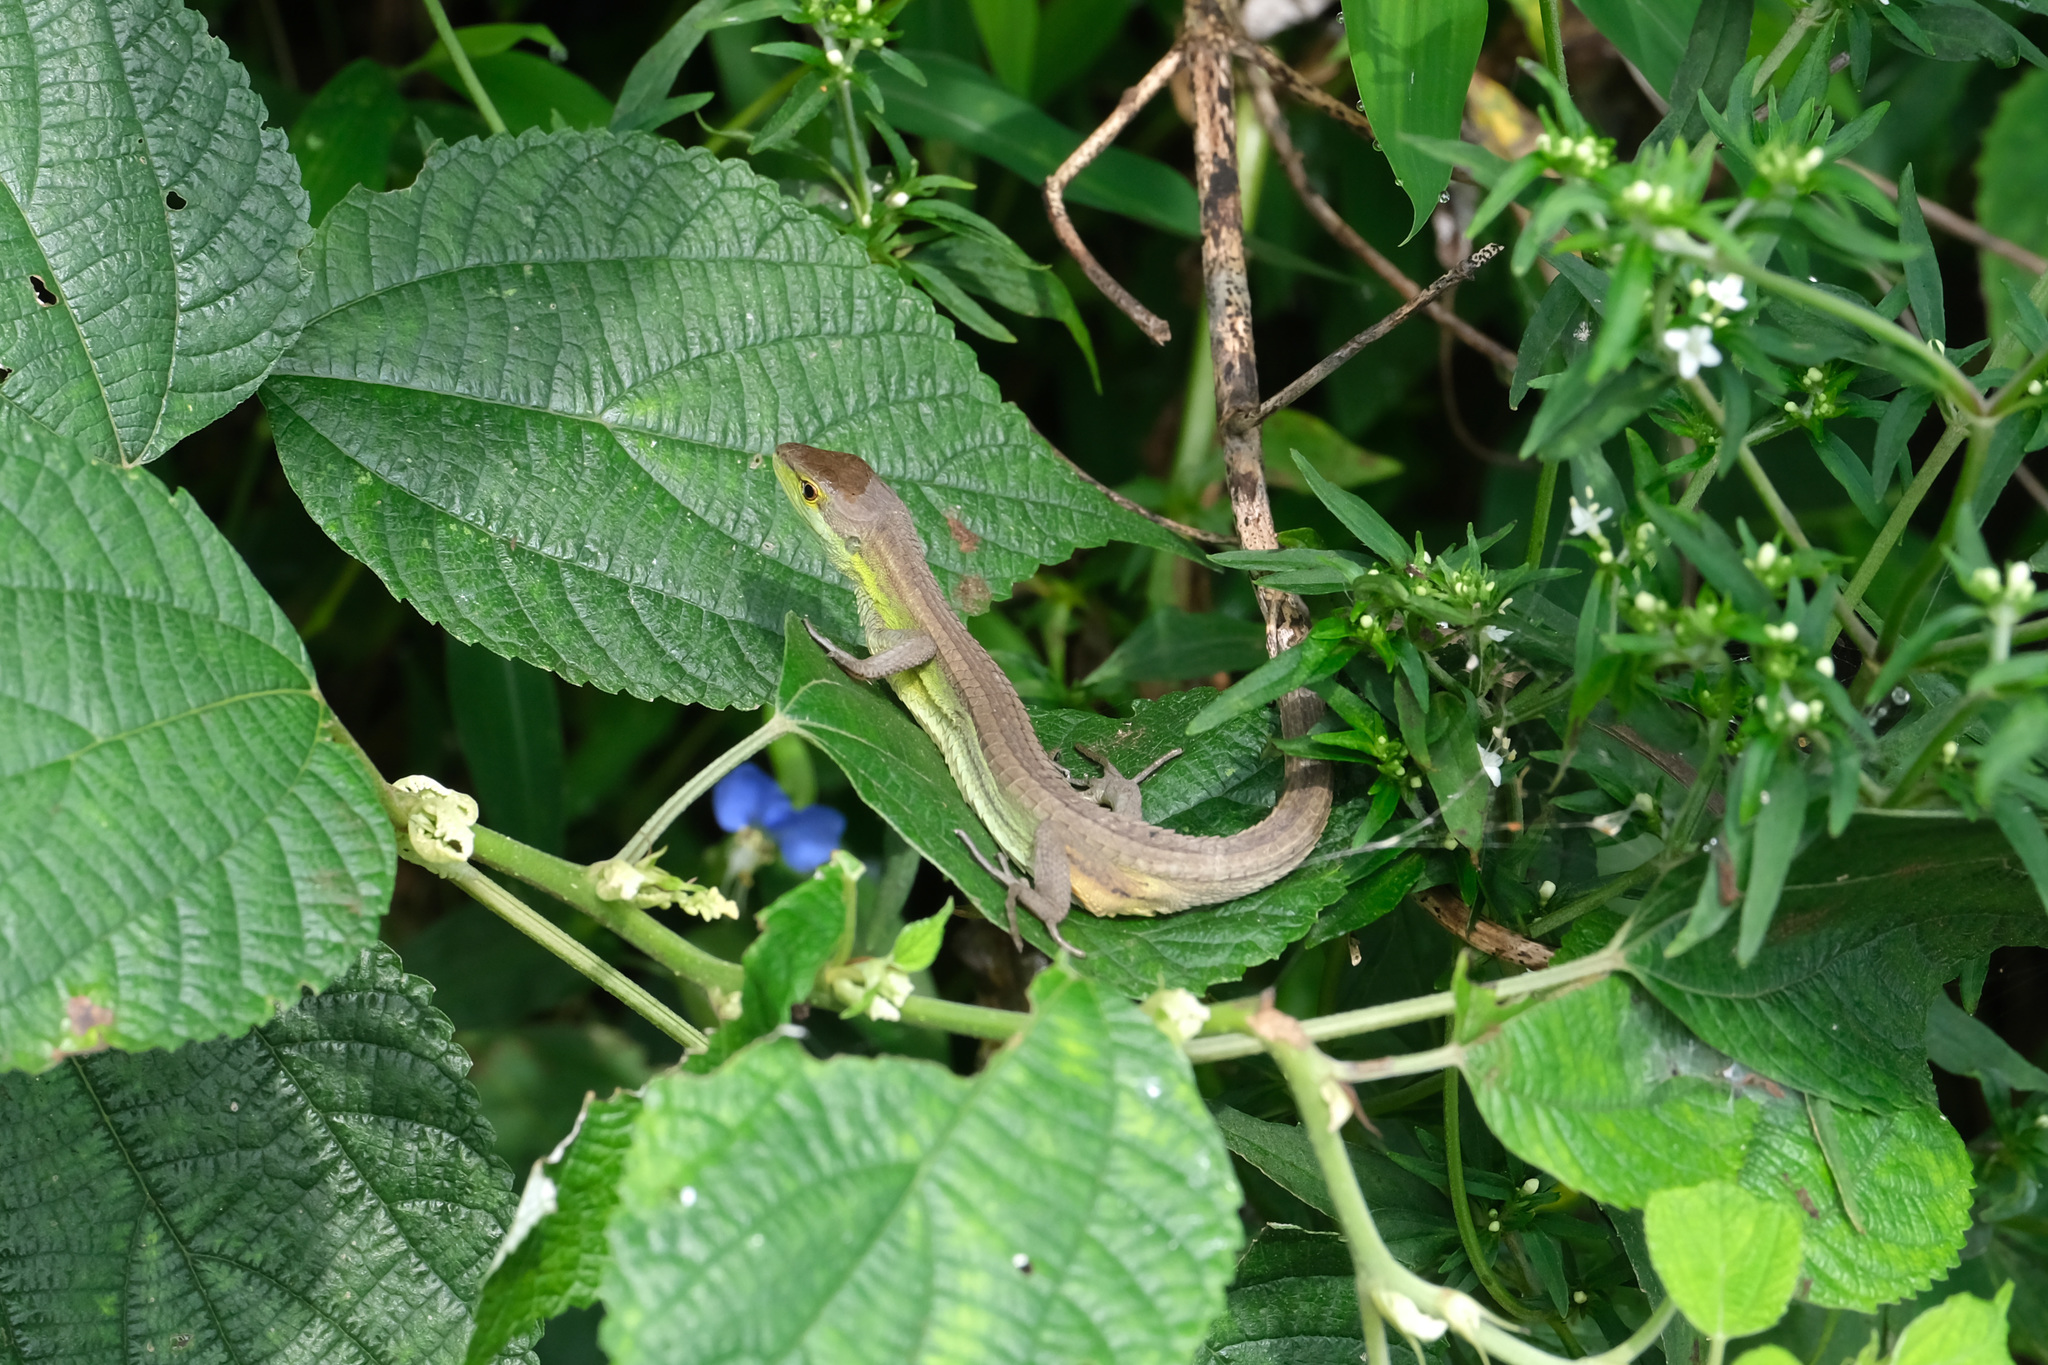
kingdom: Animalia
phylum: Chordata
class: Squamata
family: Lacertidae
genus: Takydromus
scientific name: Takydromus septentrionalis
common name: China grass lizard
